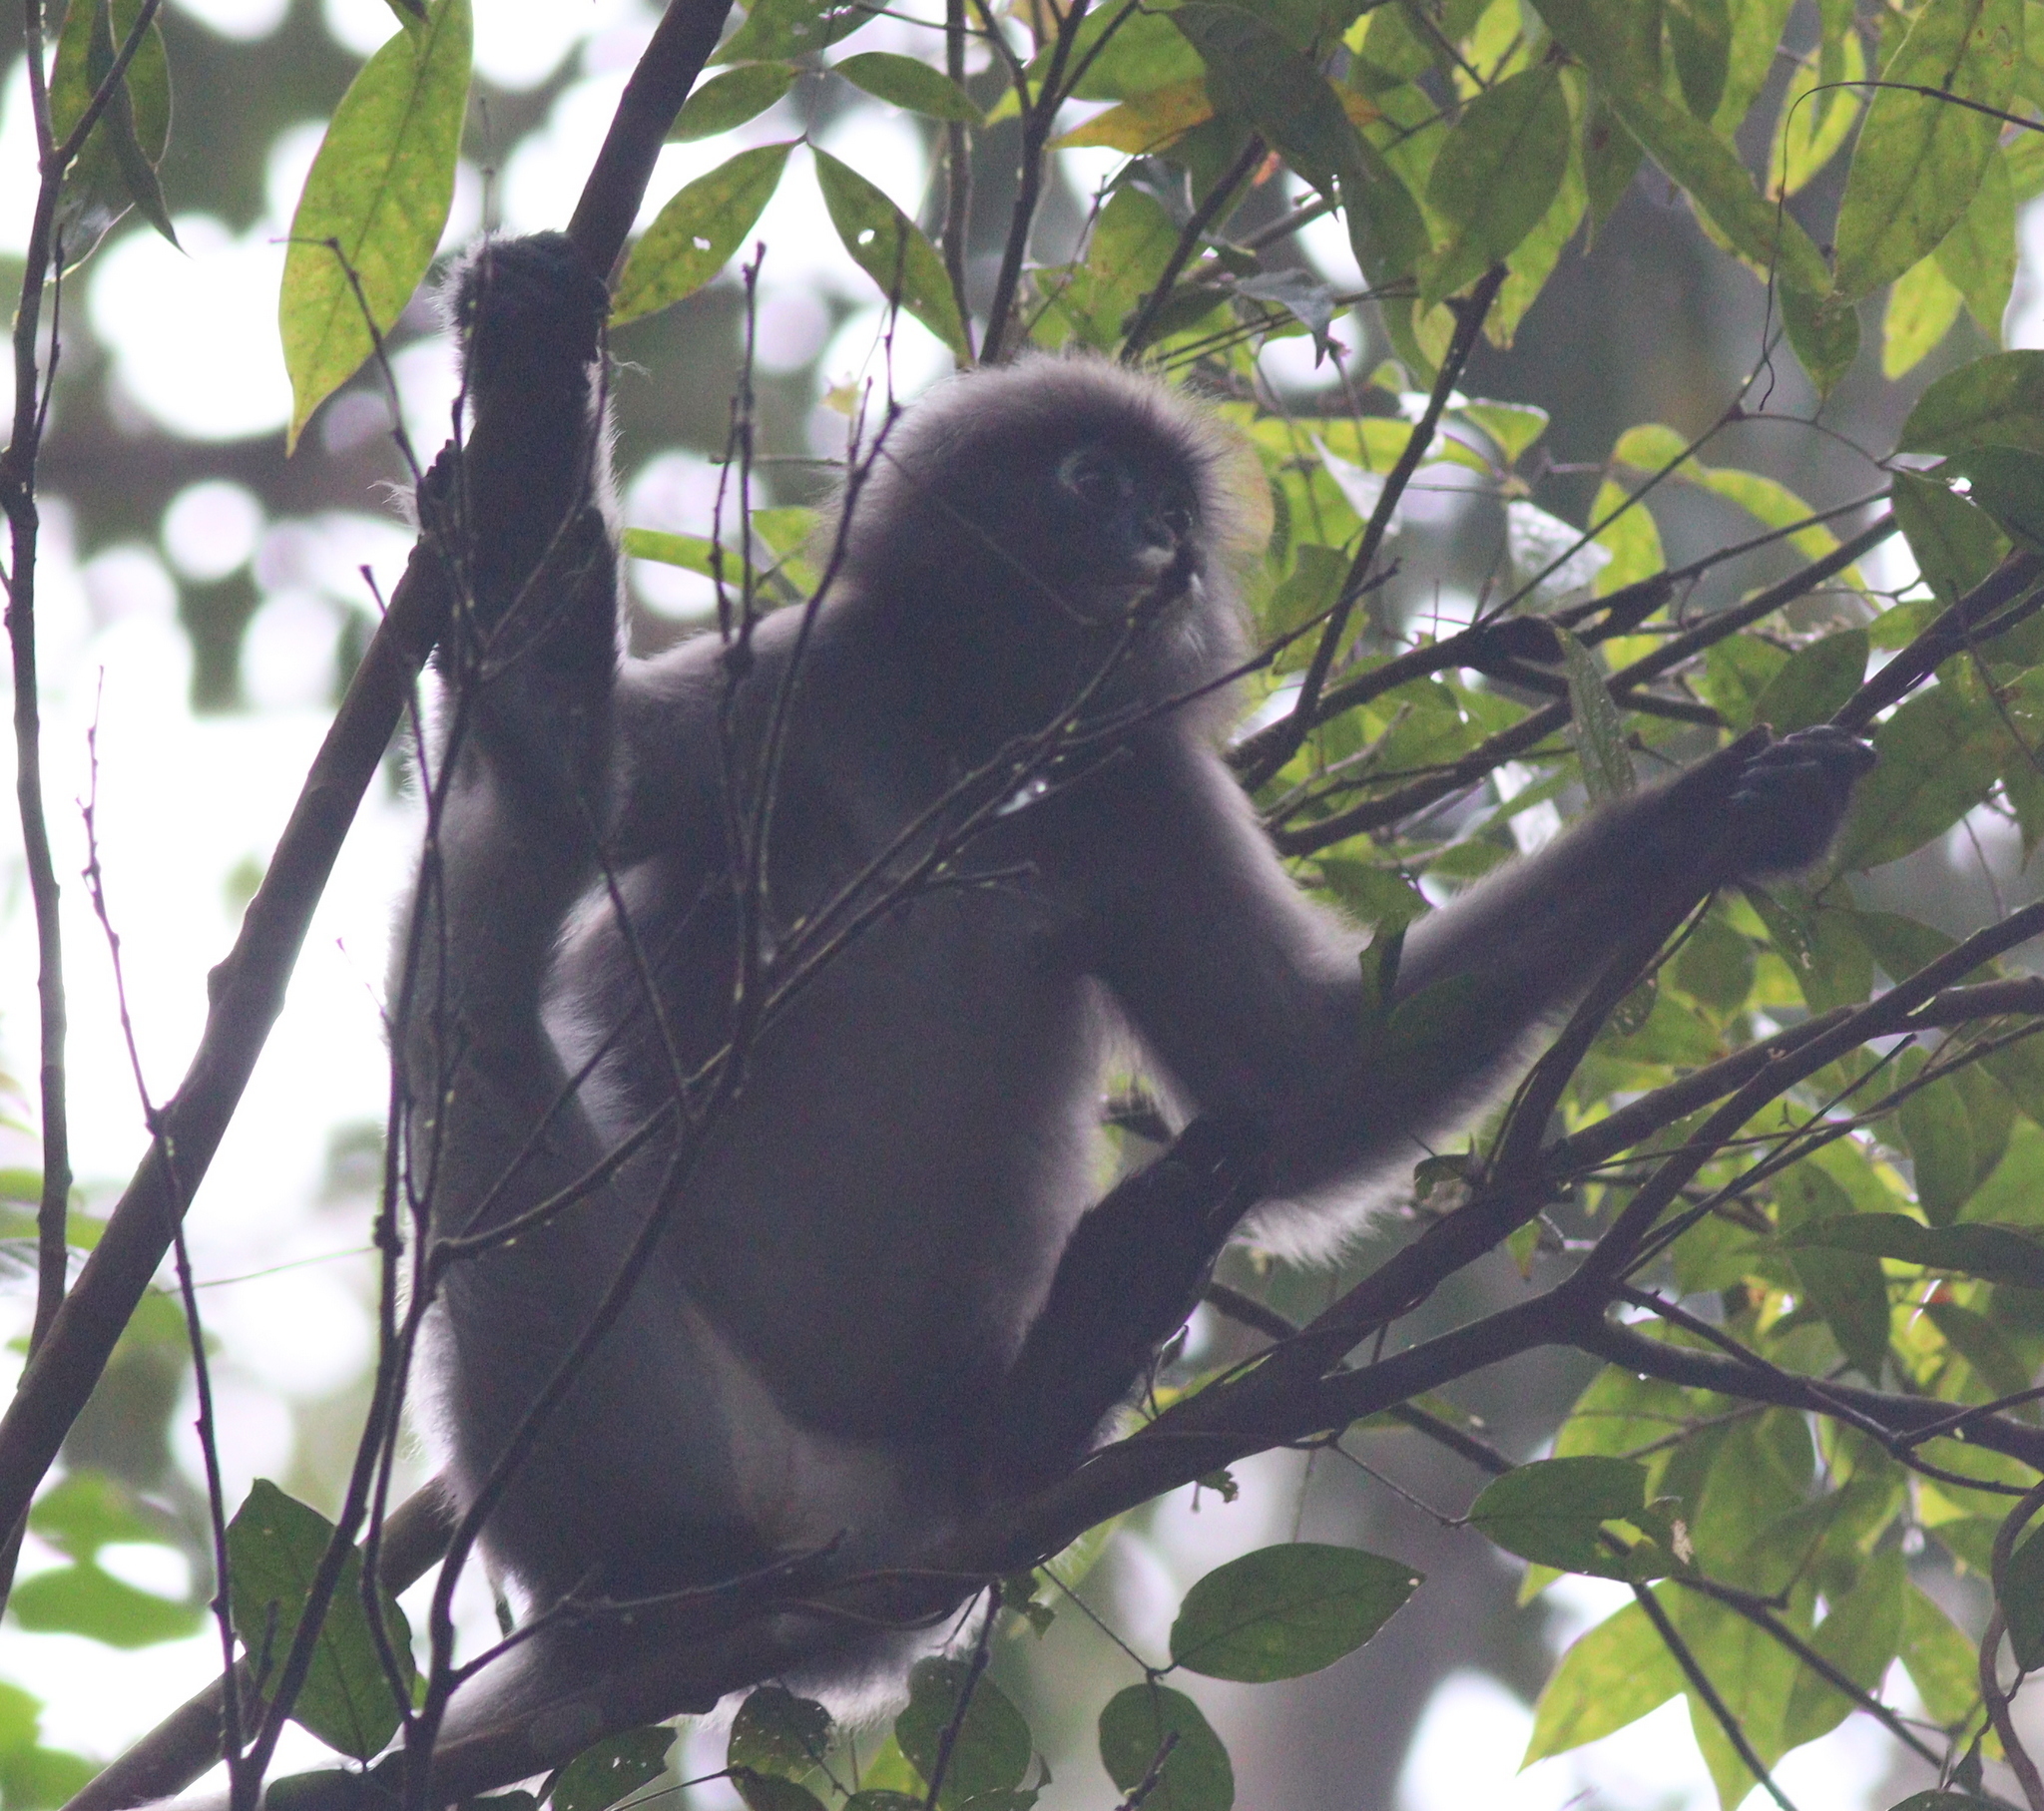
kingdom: Animalia
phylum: Chordata
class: Mammalia
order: Primates
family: Cercopithecidae
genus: Trachypithecus
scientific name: Trachypithecus obscurus
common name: Dusky leaf-monkey
